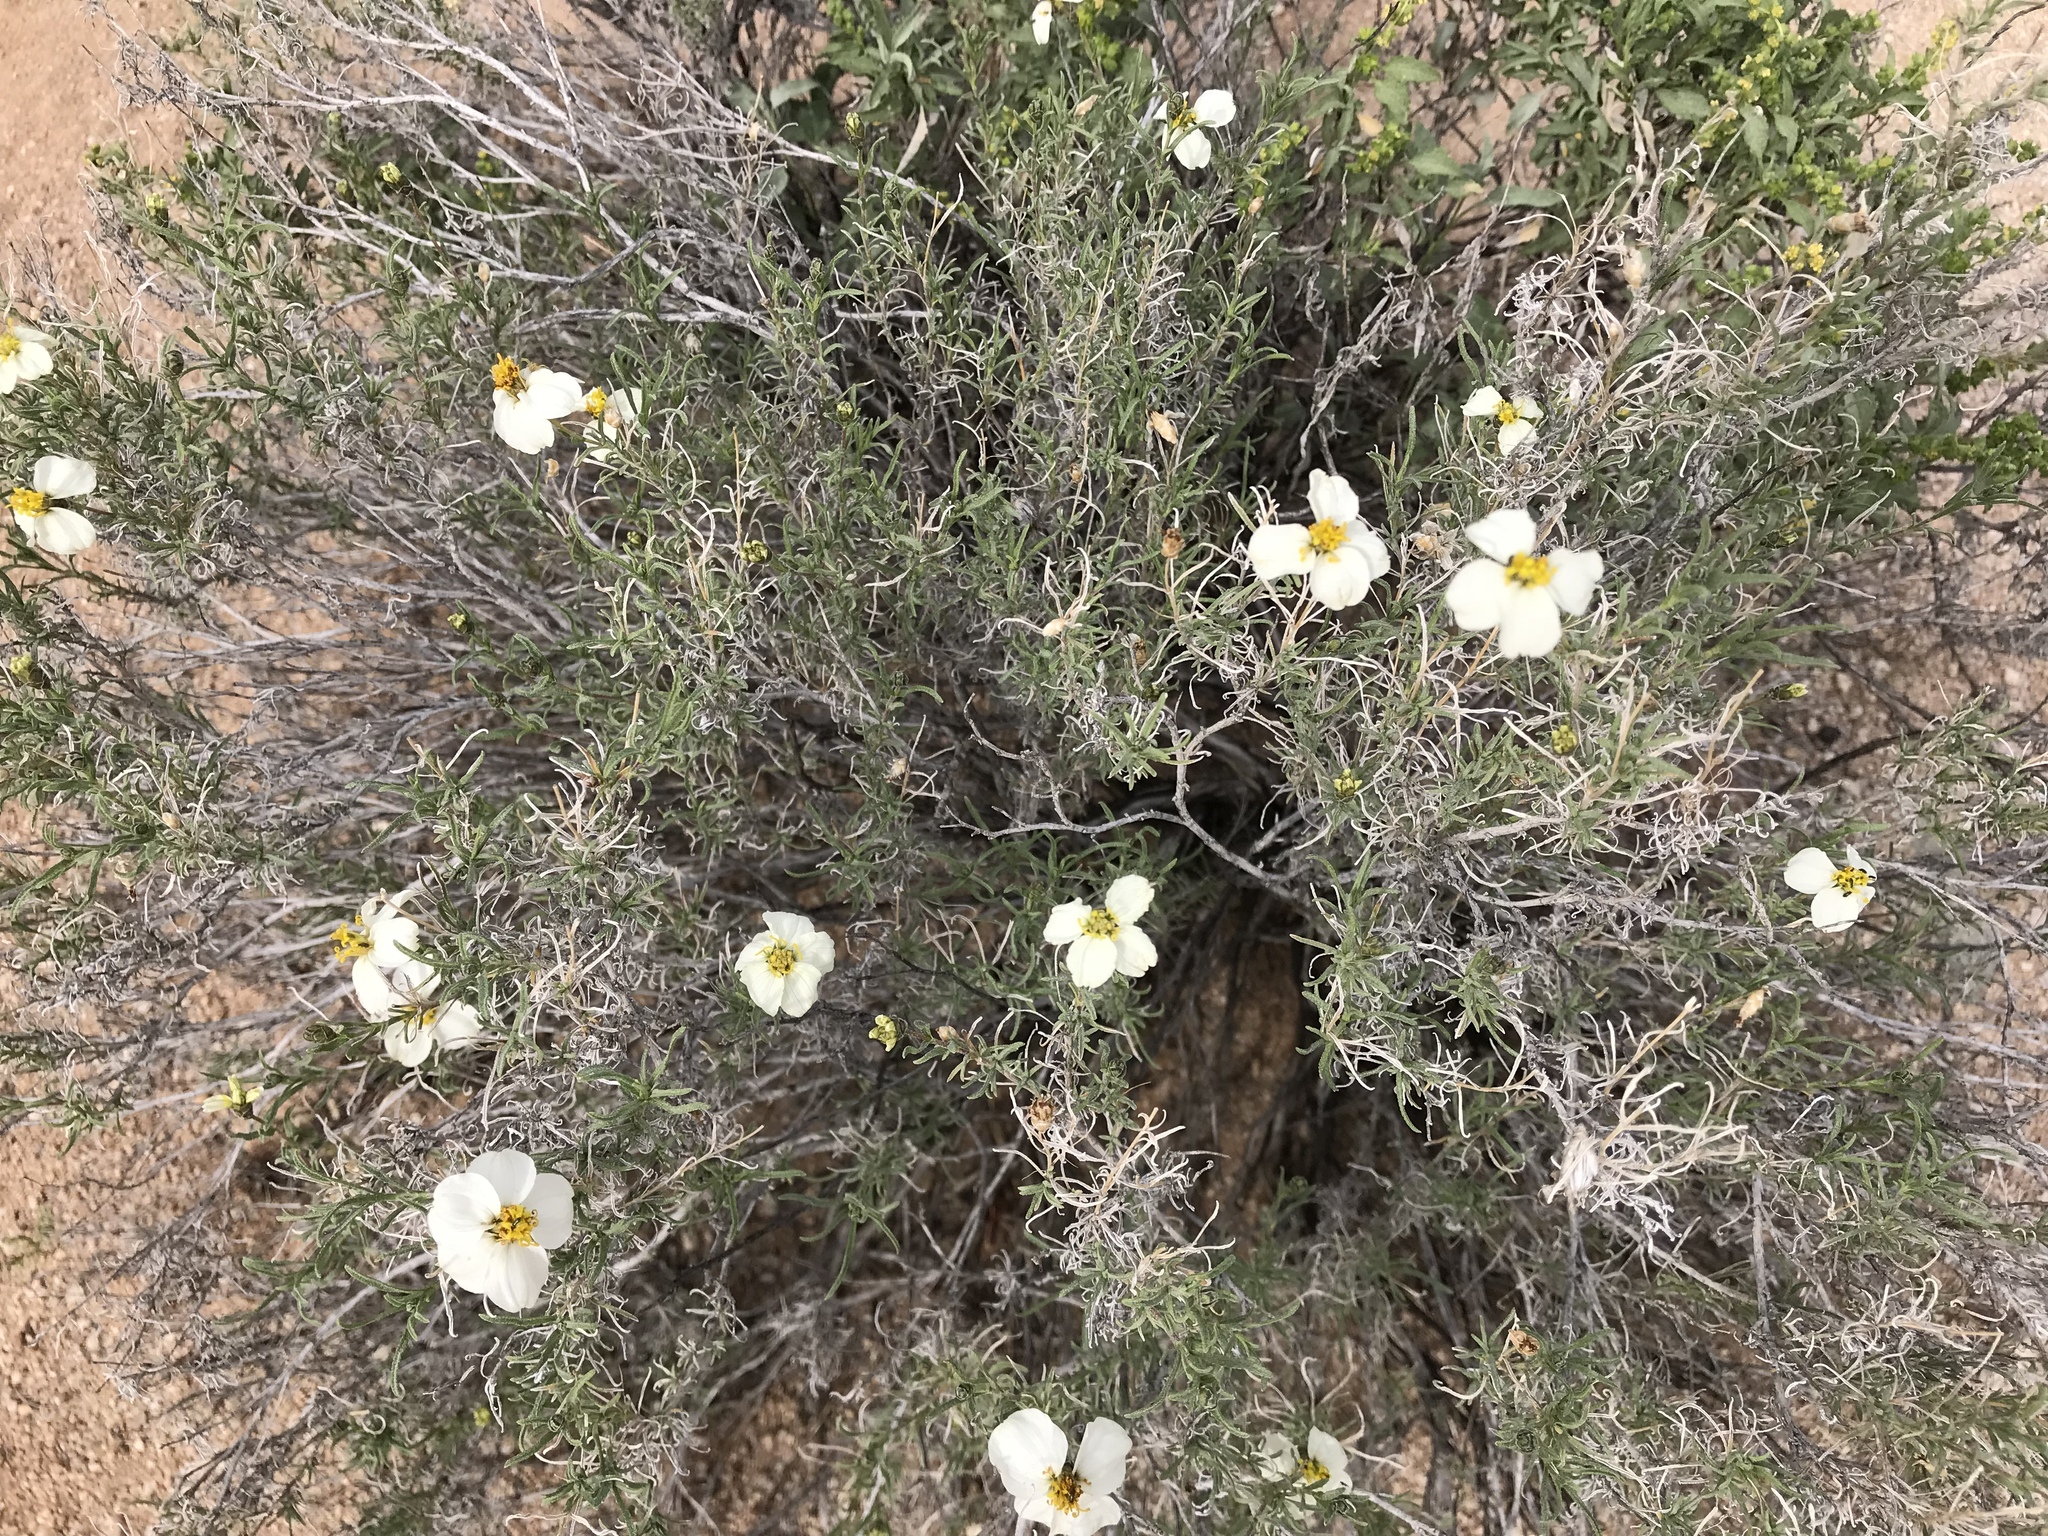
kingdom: Plantae
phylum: Tracheophyta
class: Magnoliopsida
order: Asterales
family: Asteraceae
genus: Zinnia
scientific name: Zinnia acerosa
